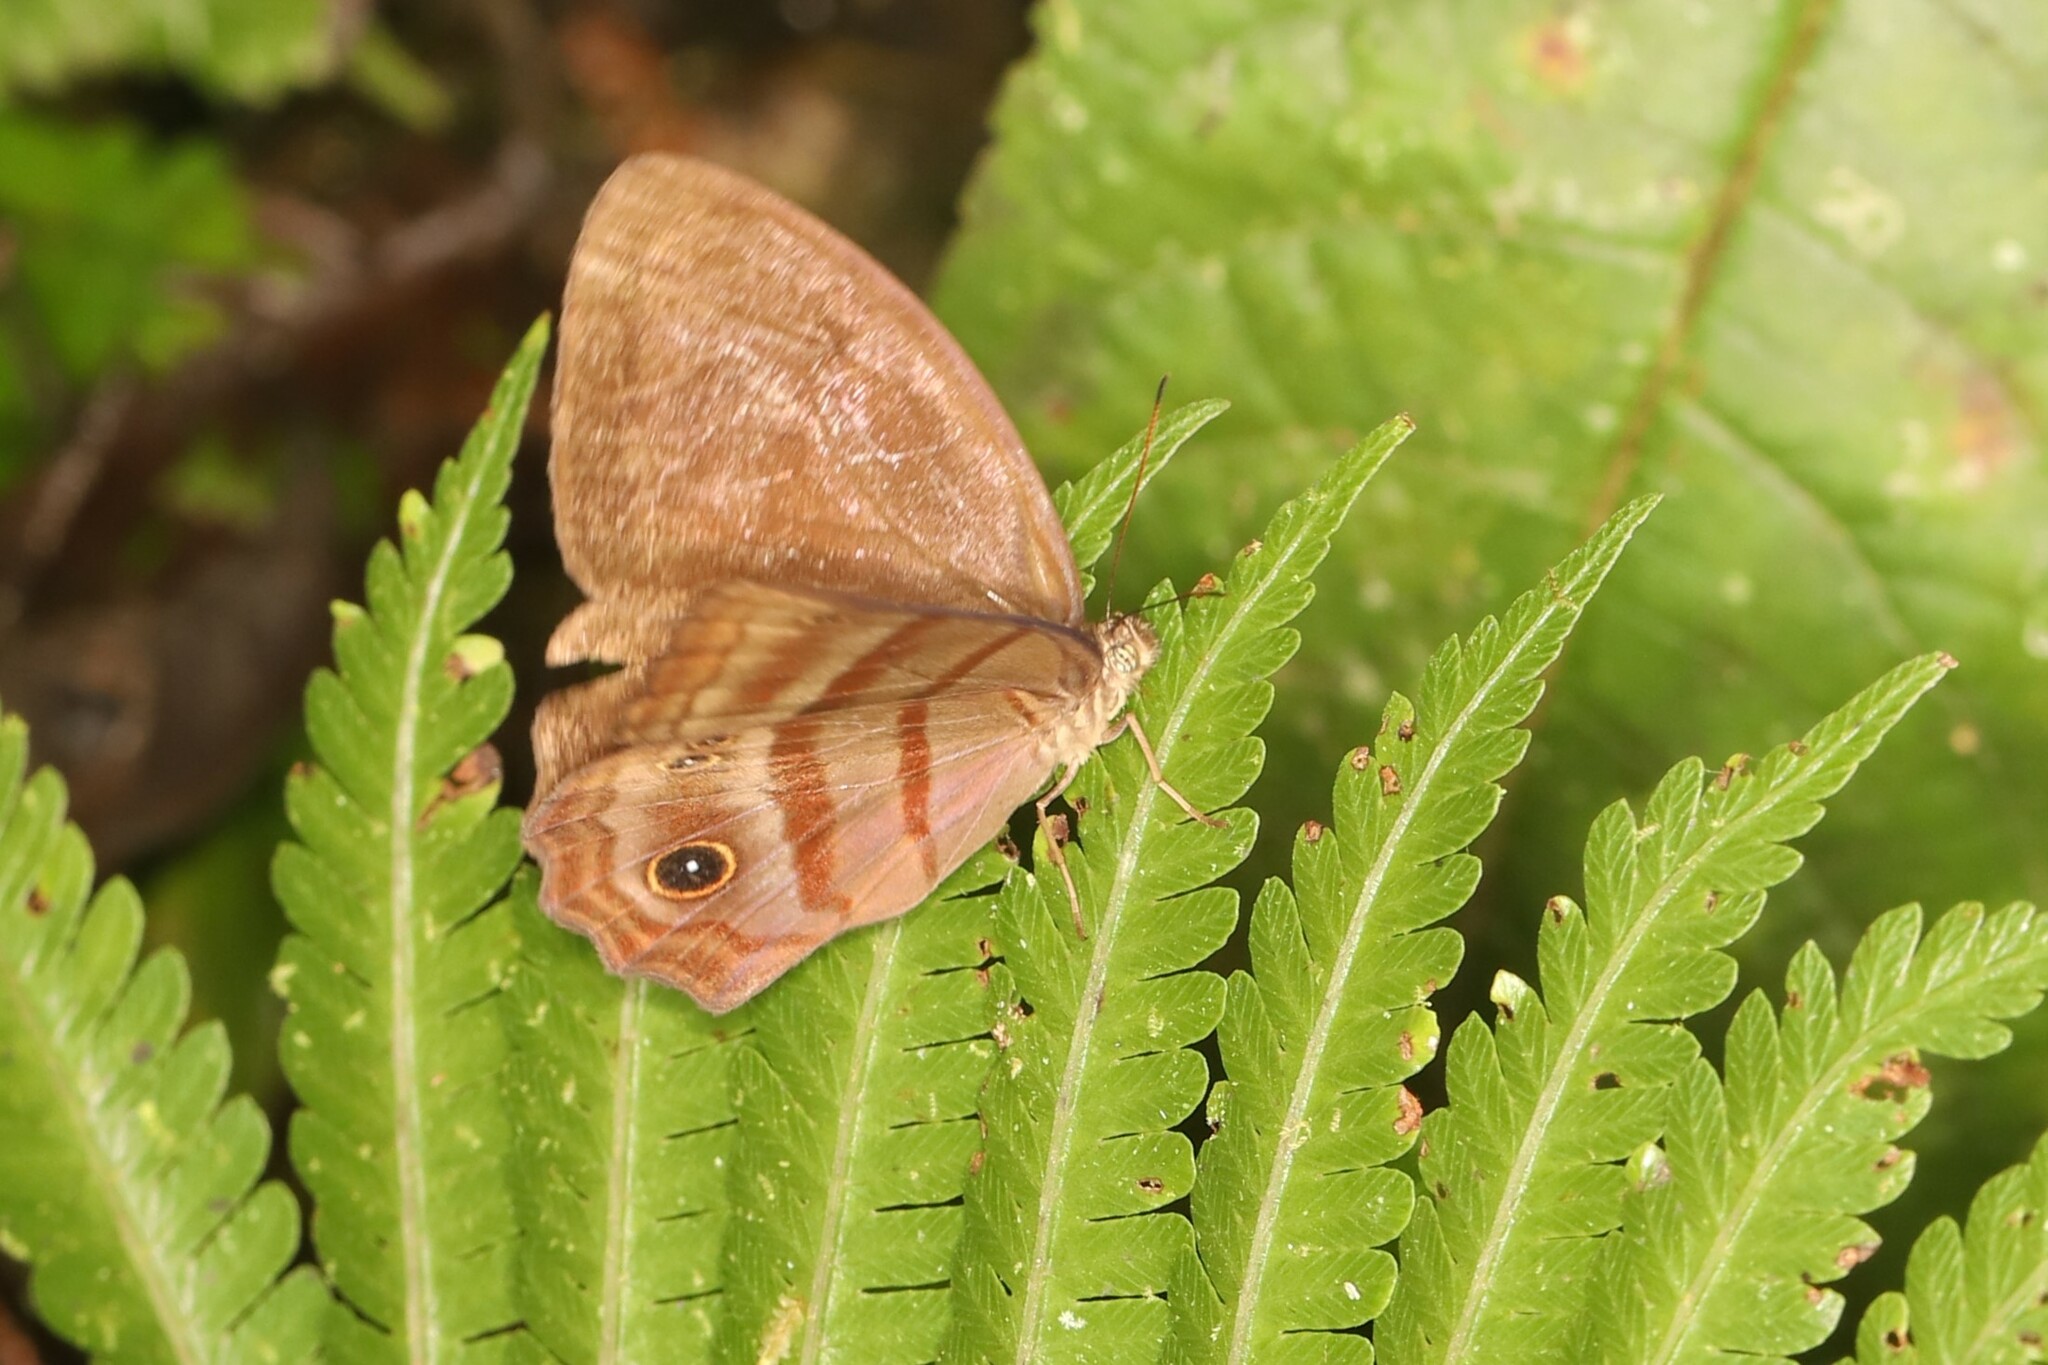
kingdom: Animalia
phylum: Arthropoda
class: Insecta
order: Lepidoptera
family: Nymphalidae
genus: Satyrotaygetis
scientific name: Satyrotaygetis
